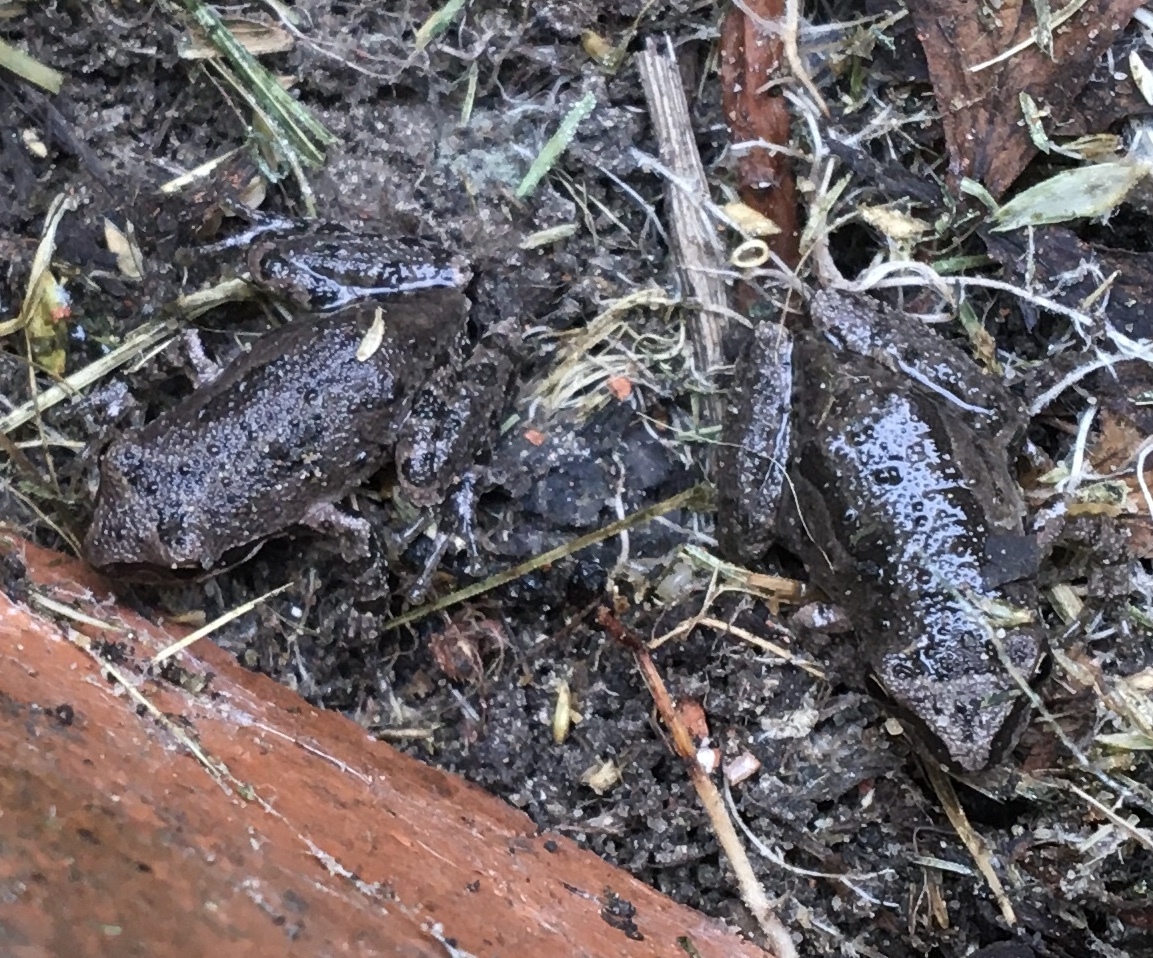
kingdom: Animalia
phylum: Chordata
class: Amphibia
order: Anura
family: Hylidae
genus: Pseudacris
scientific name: Pseudacris regilla
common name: Pacific chorus frog
